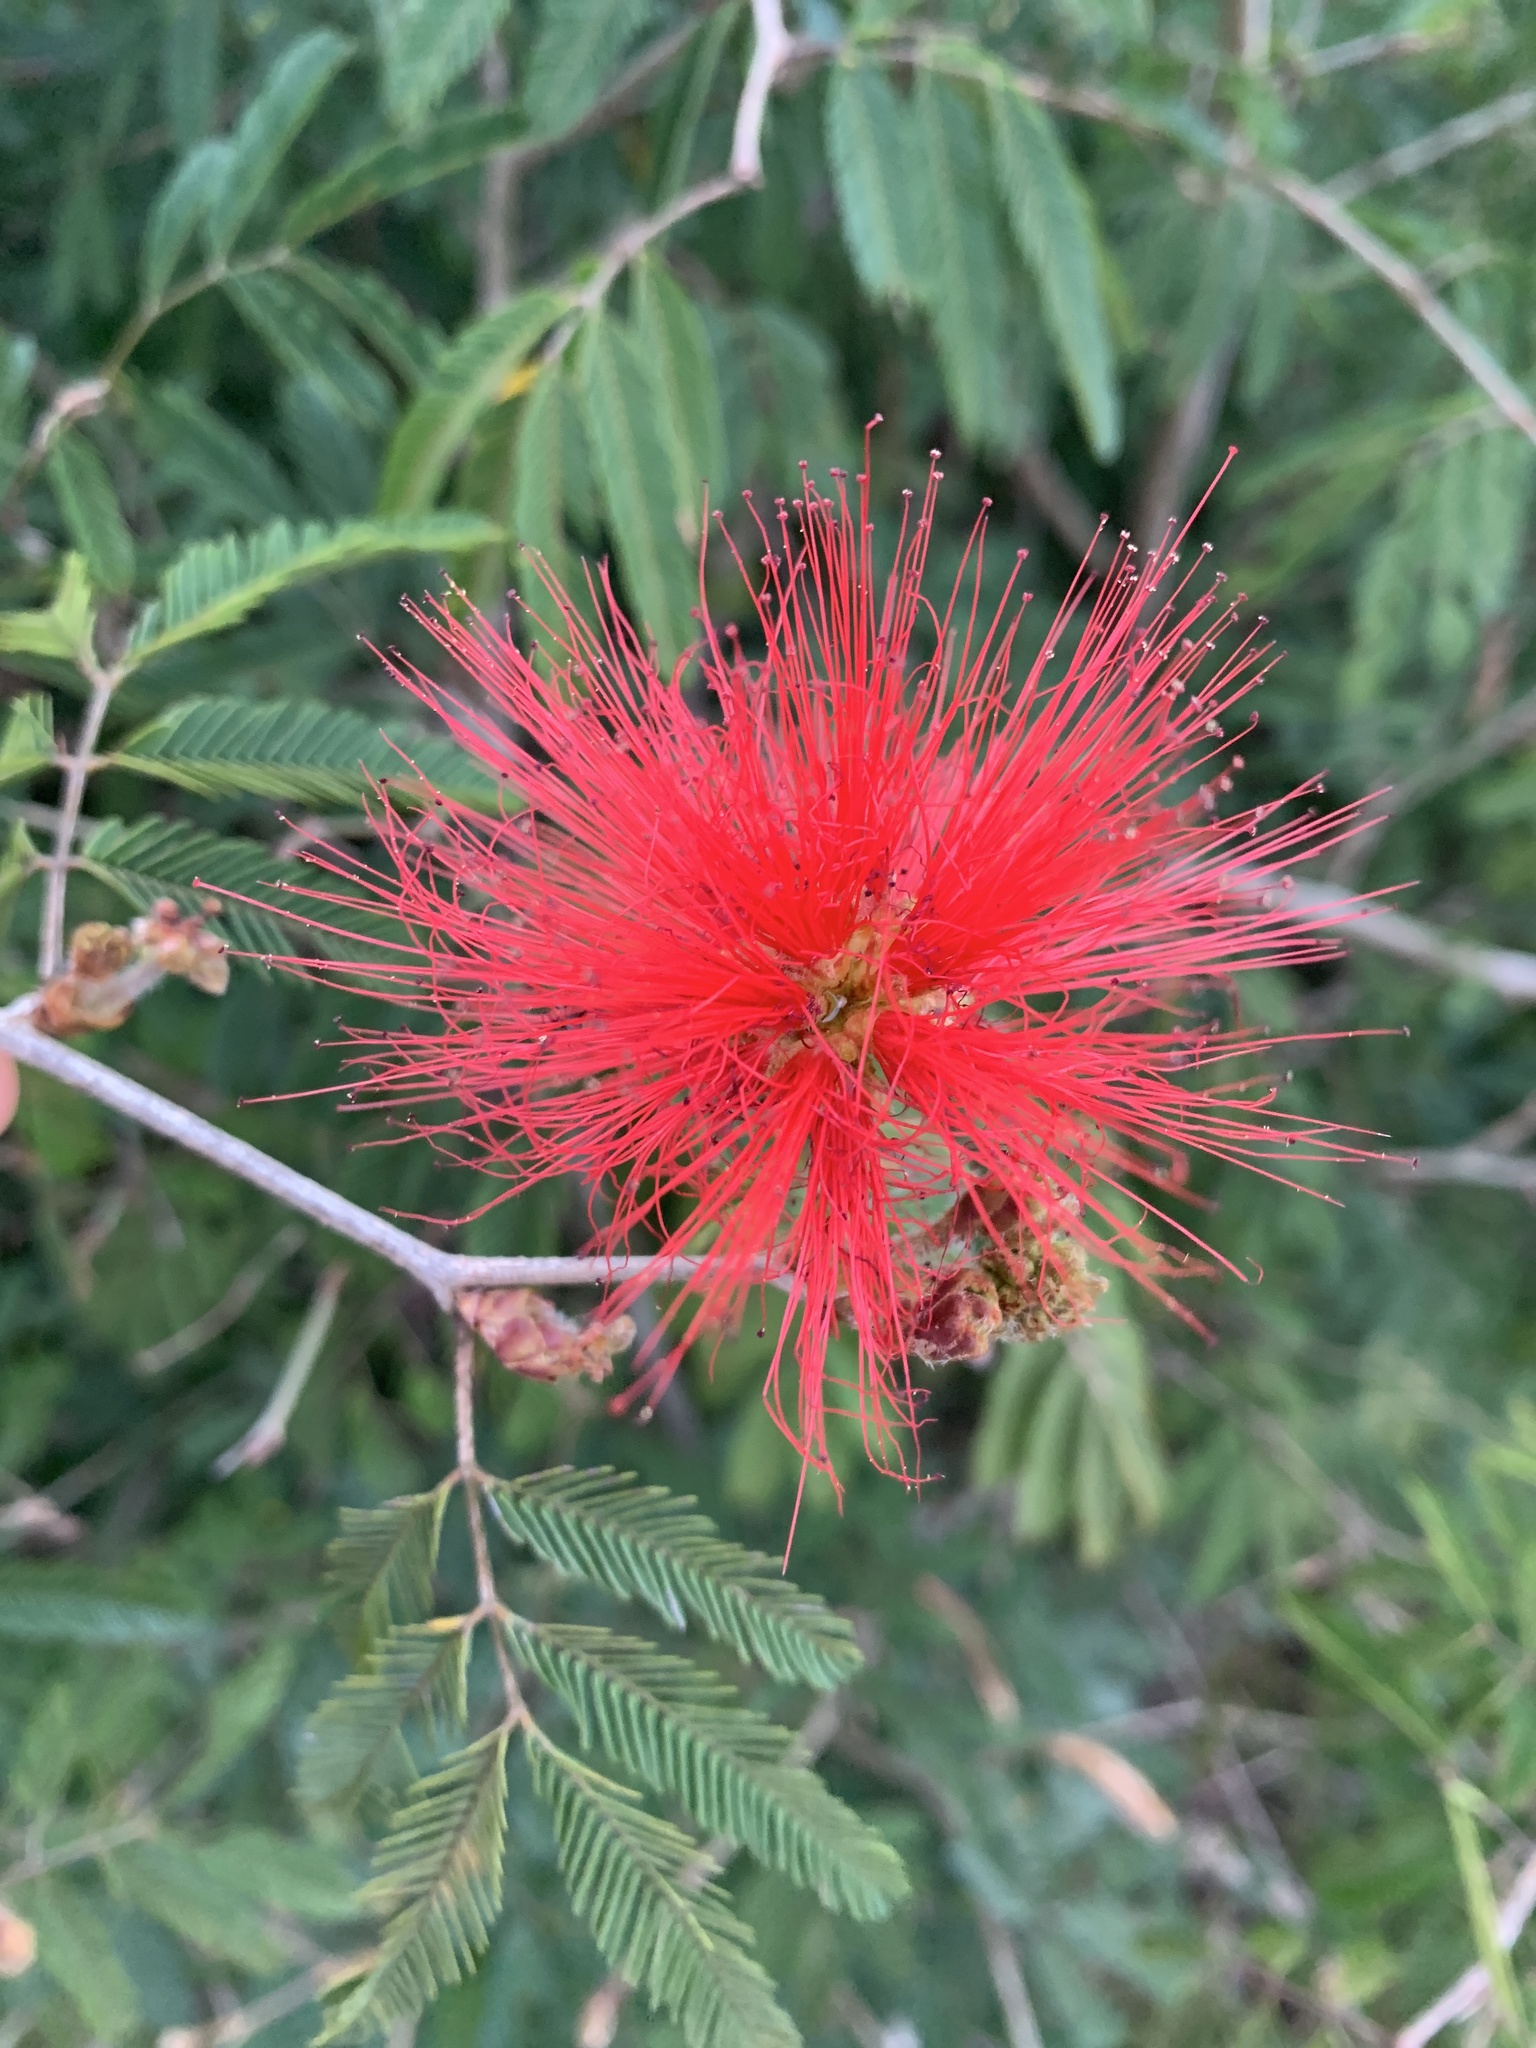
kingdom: Plantae
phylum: Tracheophyta
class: Magnoliopsida
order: Fabales
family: Fabaceae
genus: Calliandra
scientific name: Calliandra tweediei
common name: Mexican flamebush
